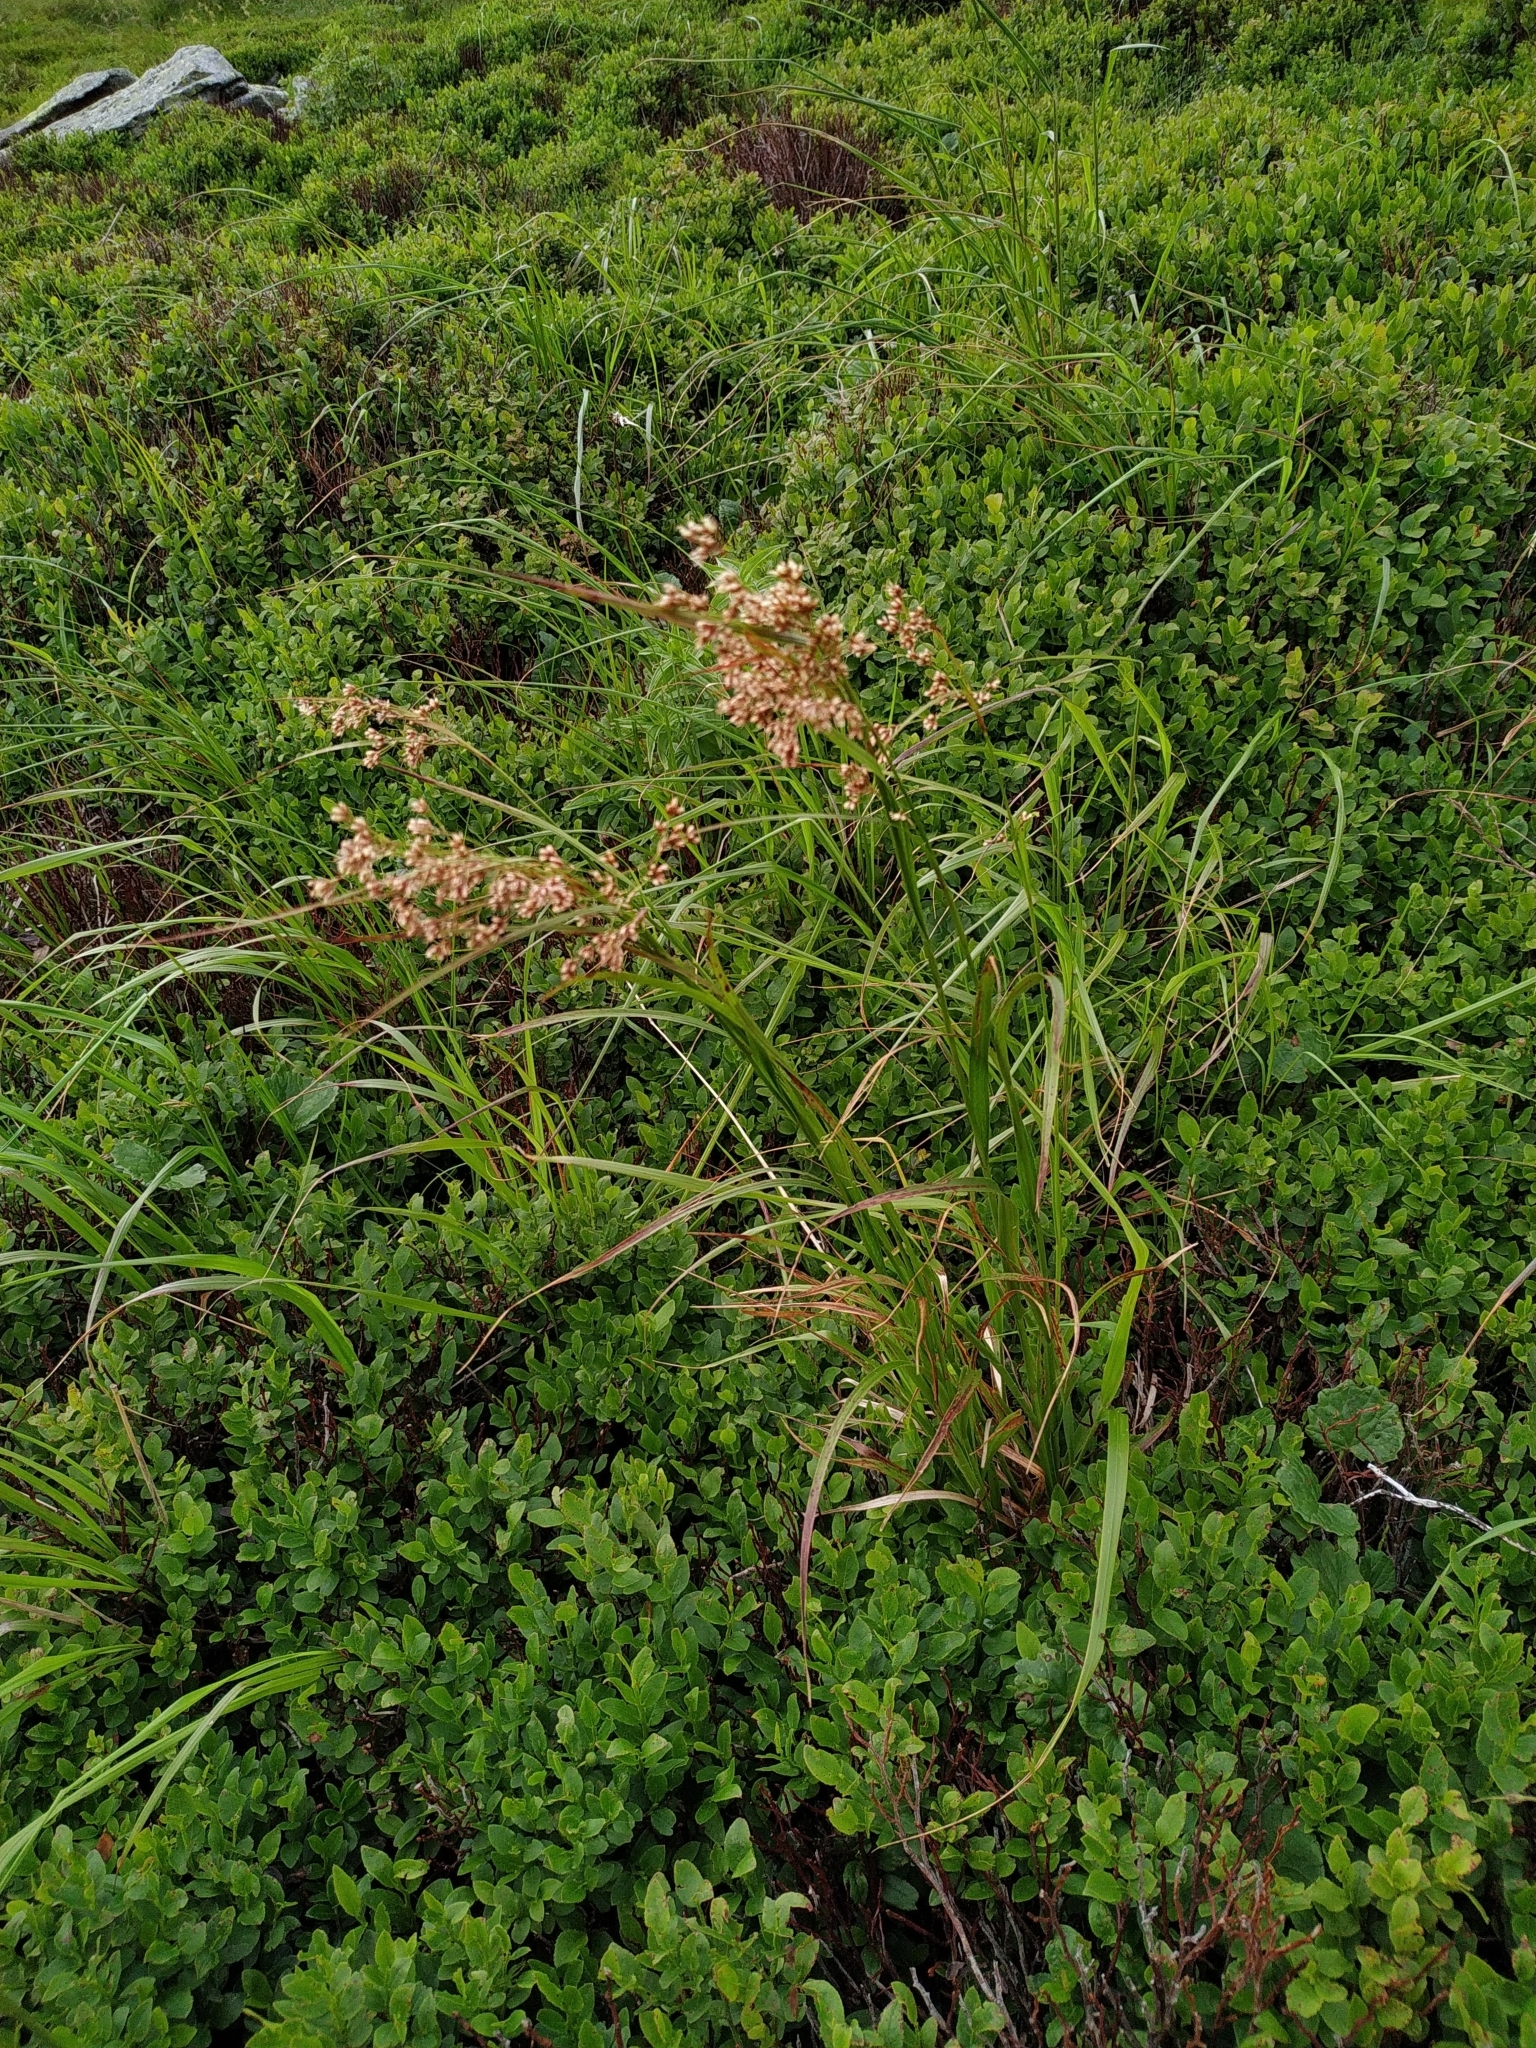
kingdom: Plantae
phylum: Tracheophyta
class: Liliopsida
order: Poales
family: Juncaceae
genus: Luzula
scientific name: Luzula luzuloides
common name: White wood-rush
